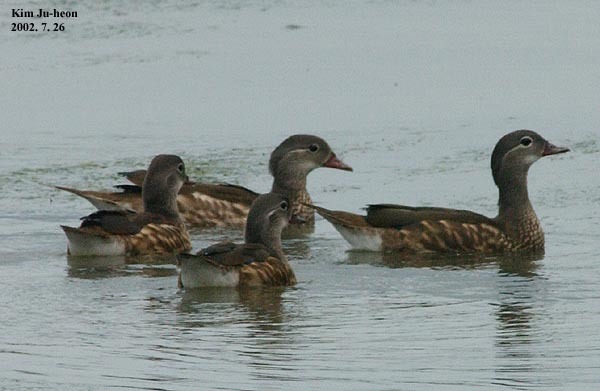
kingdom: Animalia
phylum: Chordata
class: Aves
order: Anseriformes
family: Anatidae
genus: Aix
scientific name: Aix galericulata
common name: Mandarin duck
